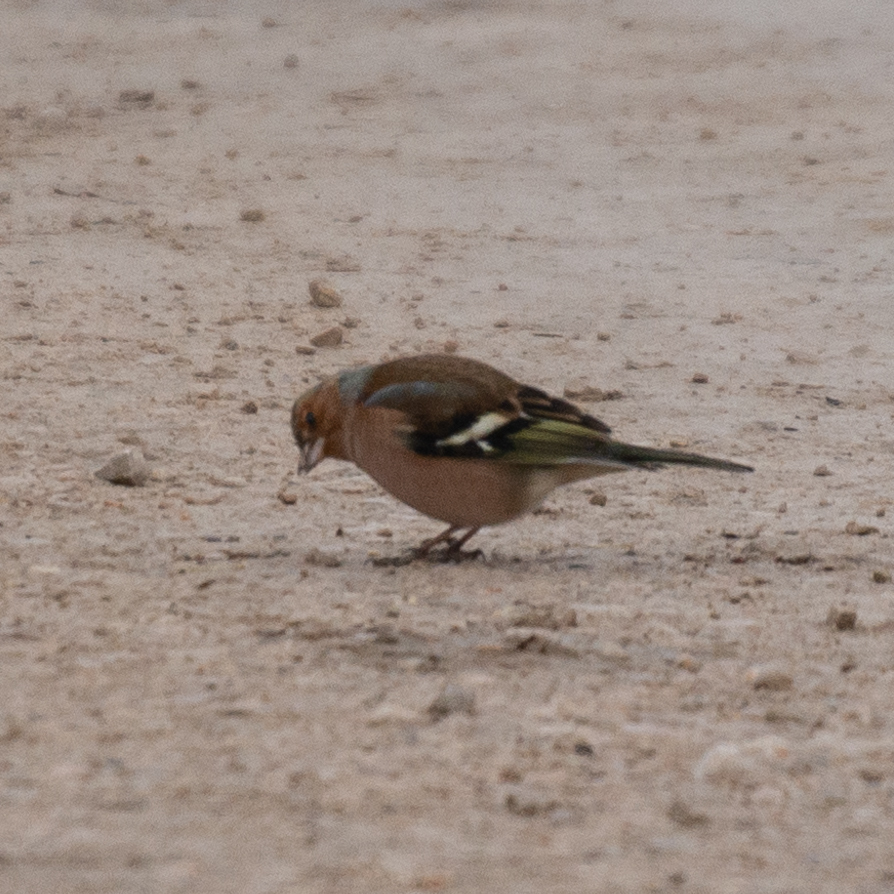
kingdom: Animalia
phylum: Chordata
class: Aves
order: Passeriformes
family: Fringillidae
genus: Fringilla
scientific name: Fringilla coelebs
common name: Common chaffinch
